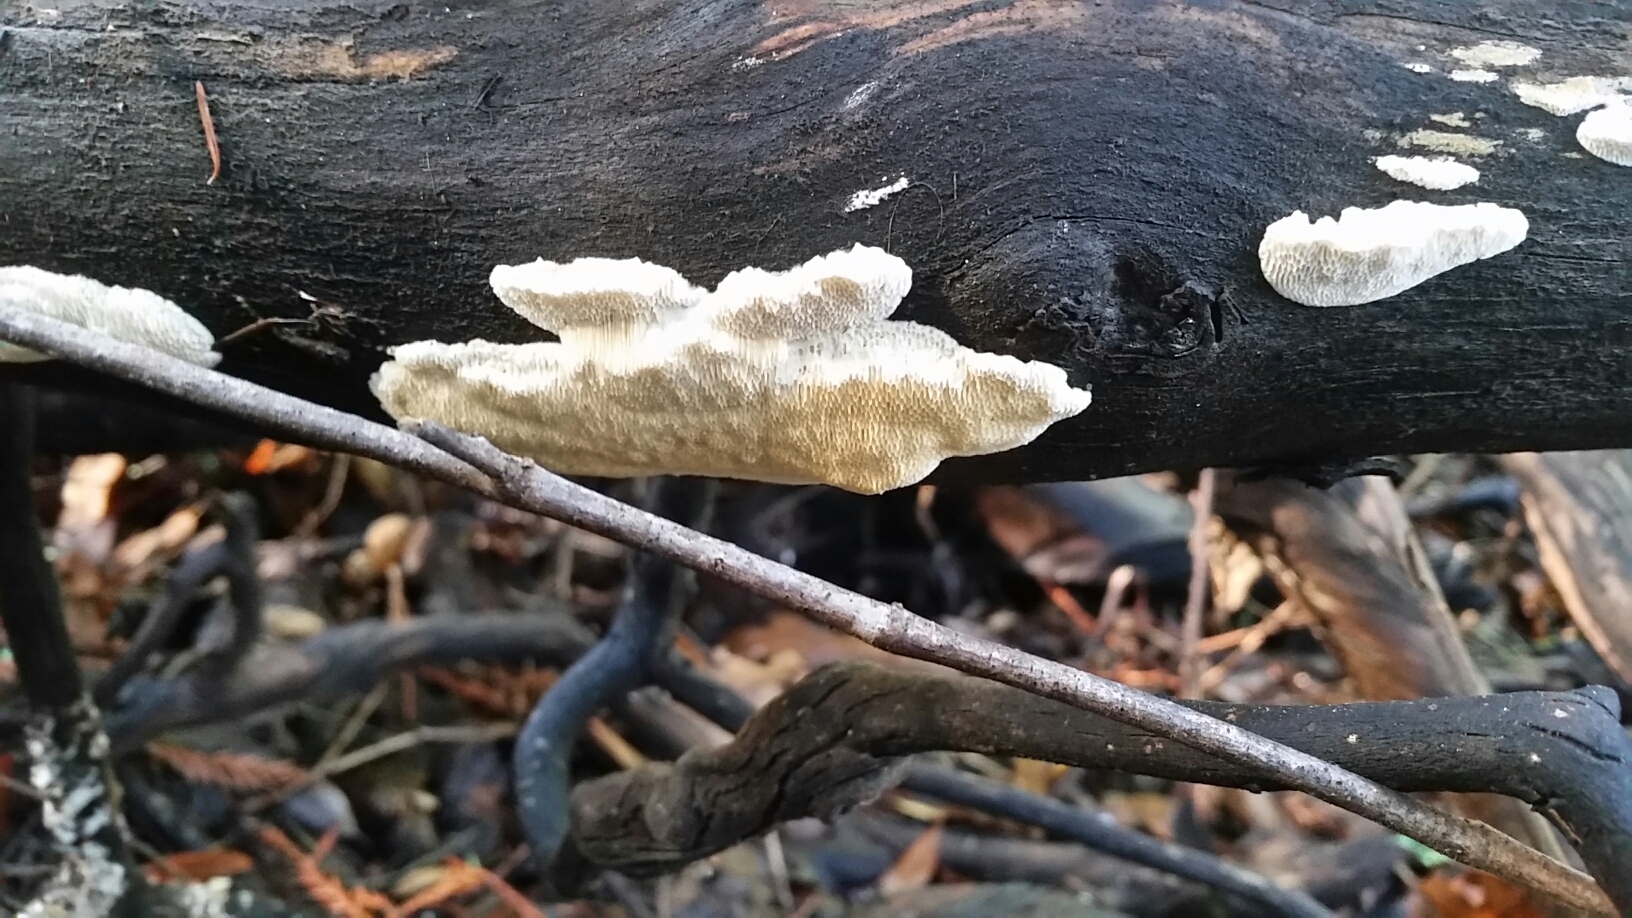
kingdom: Fungi
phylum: Basidiomycota
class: Agaricomycetes
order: Polyporales
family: Fomitopsidaceae
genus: Fomitopsis
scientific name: Fomitopsis
